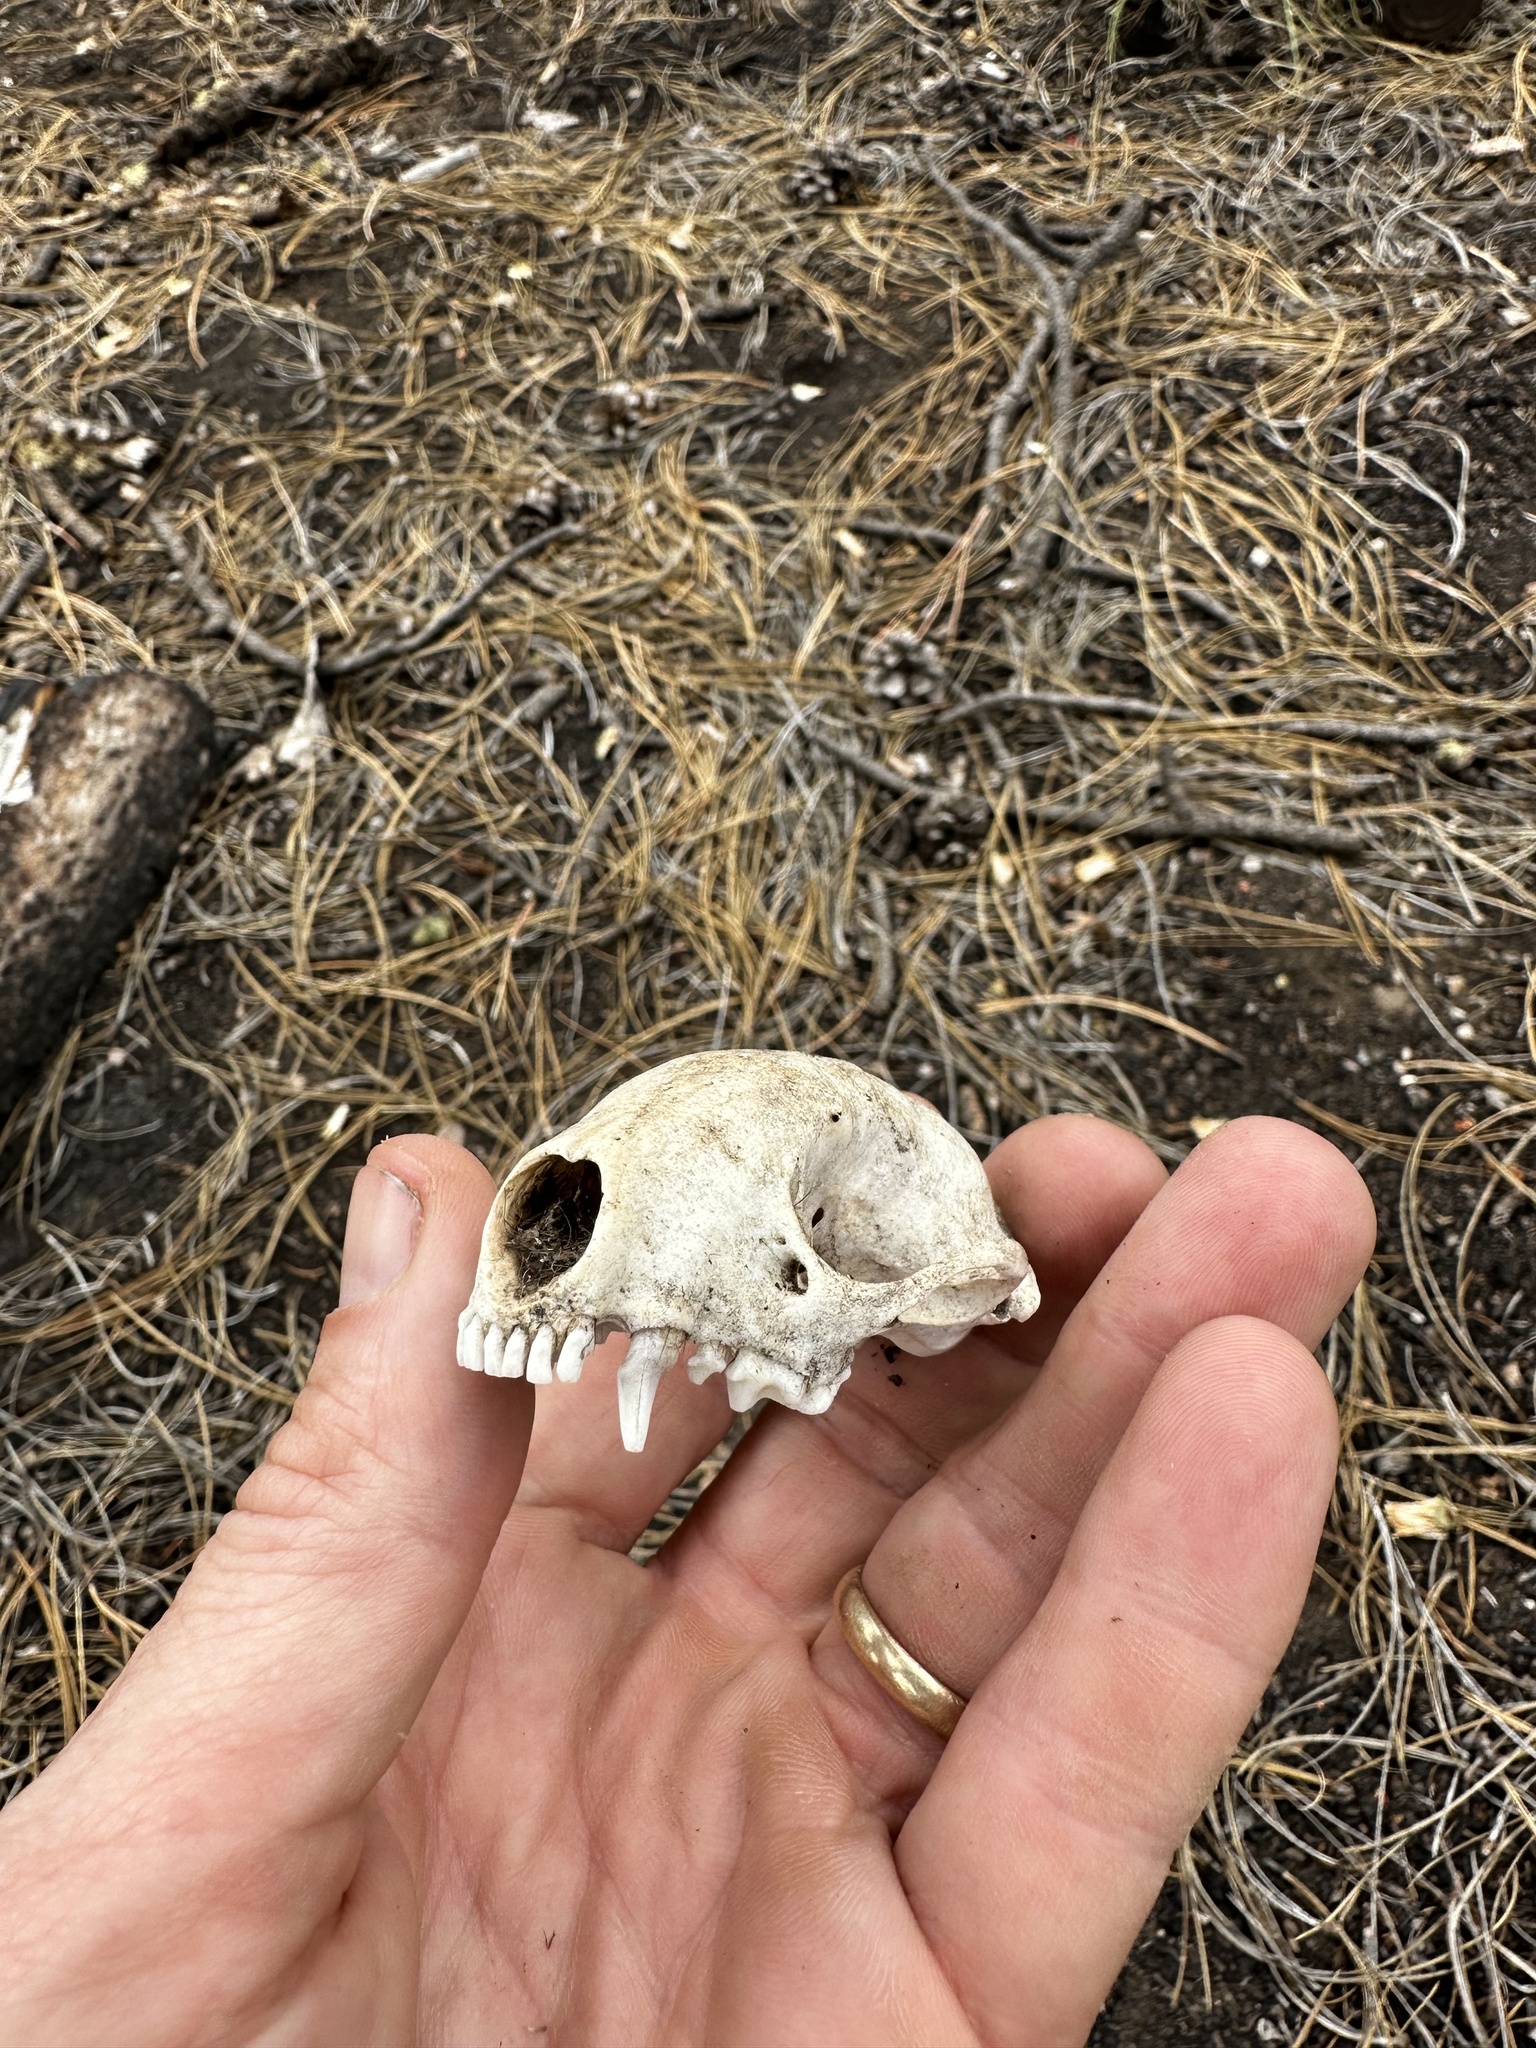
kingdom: Animalia
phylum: Chordata
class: Mammalia
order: Carnivora
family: Mephitidae
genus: Mephitis
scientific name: Mephitis mephitis
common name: Striped skunk
